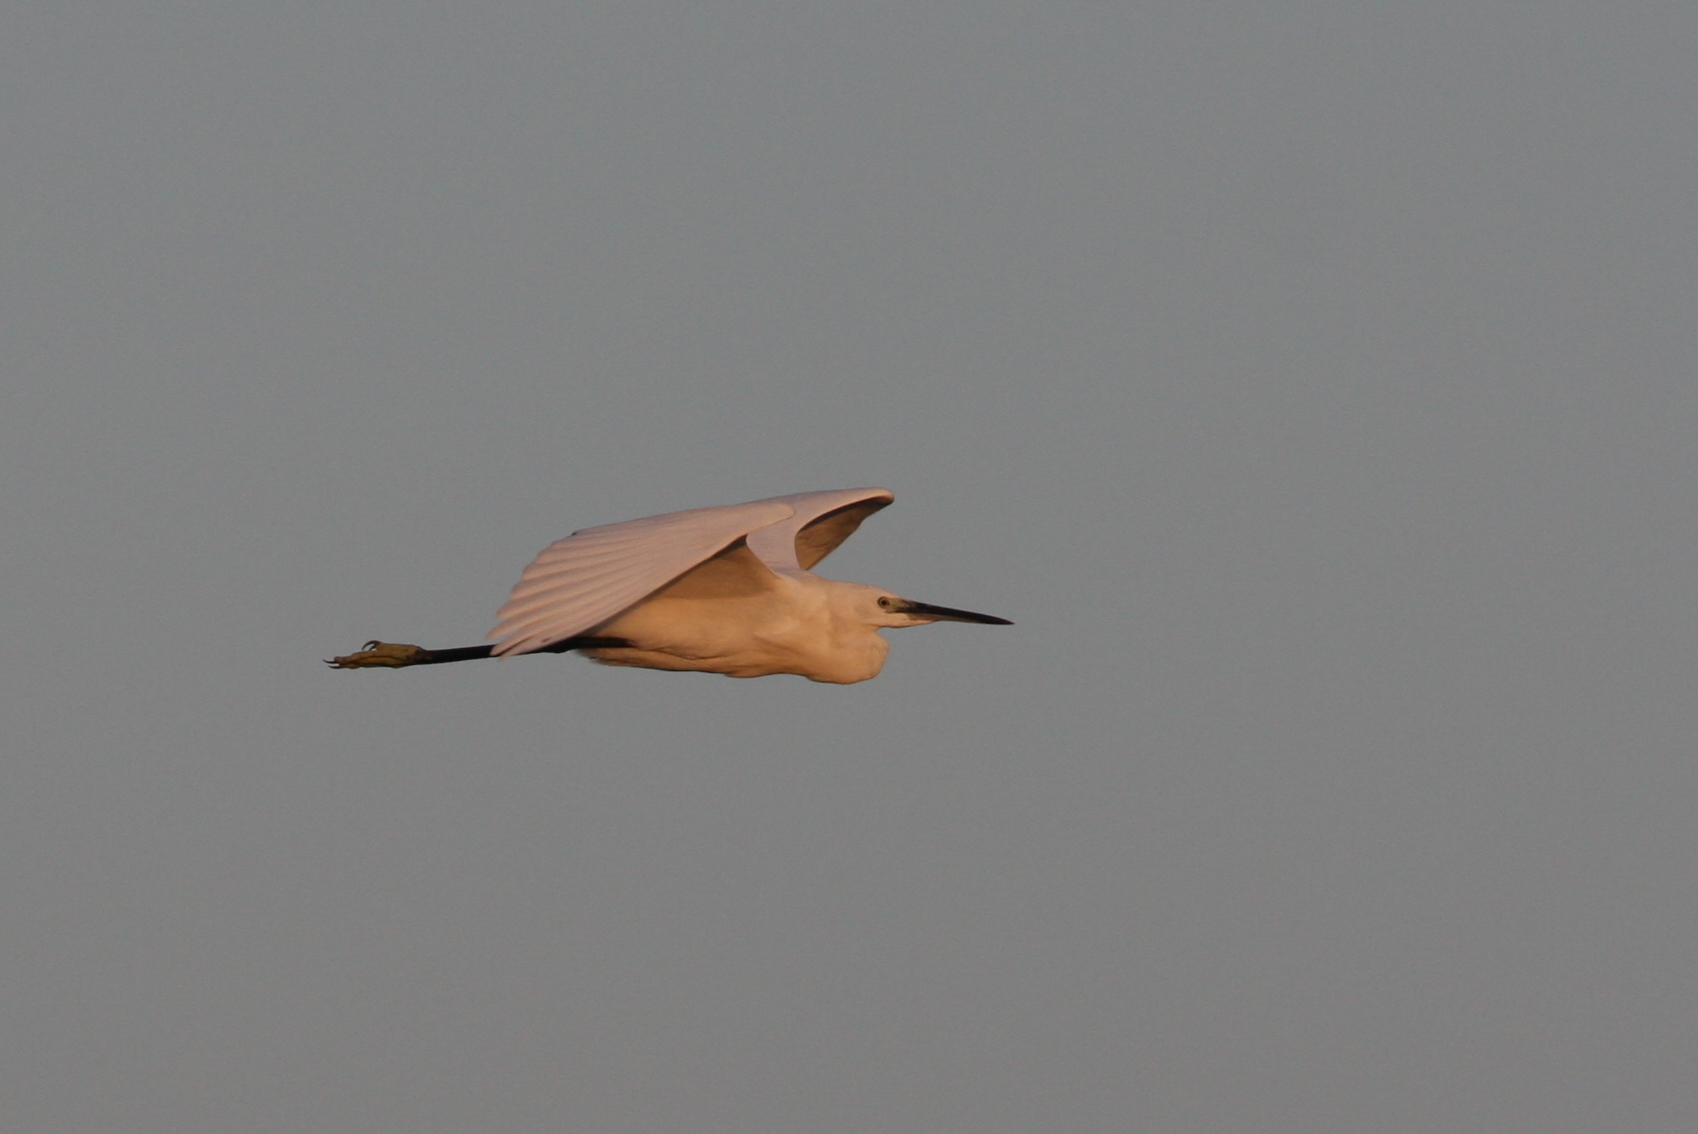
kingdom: Animalia
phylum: Chordata
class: Aves
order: Pelecaniformes
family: Ardeidae
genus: Egretta
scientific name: Egretta garzetta
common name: Little egret
